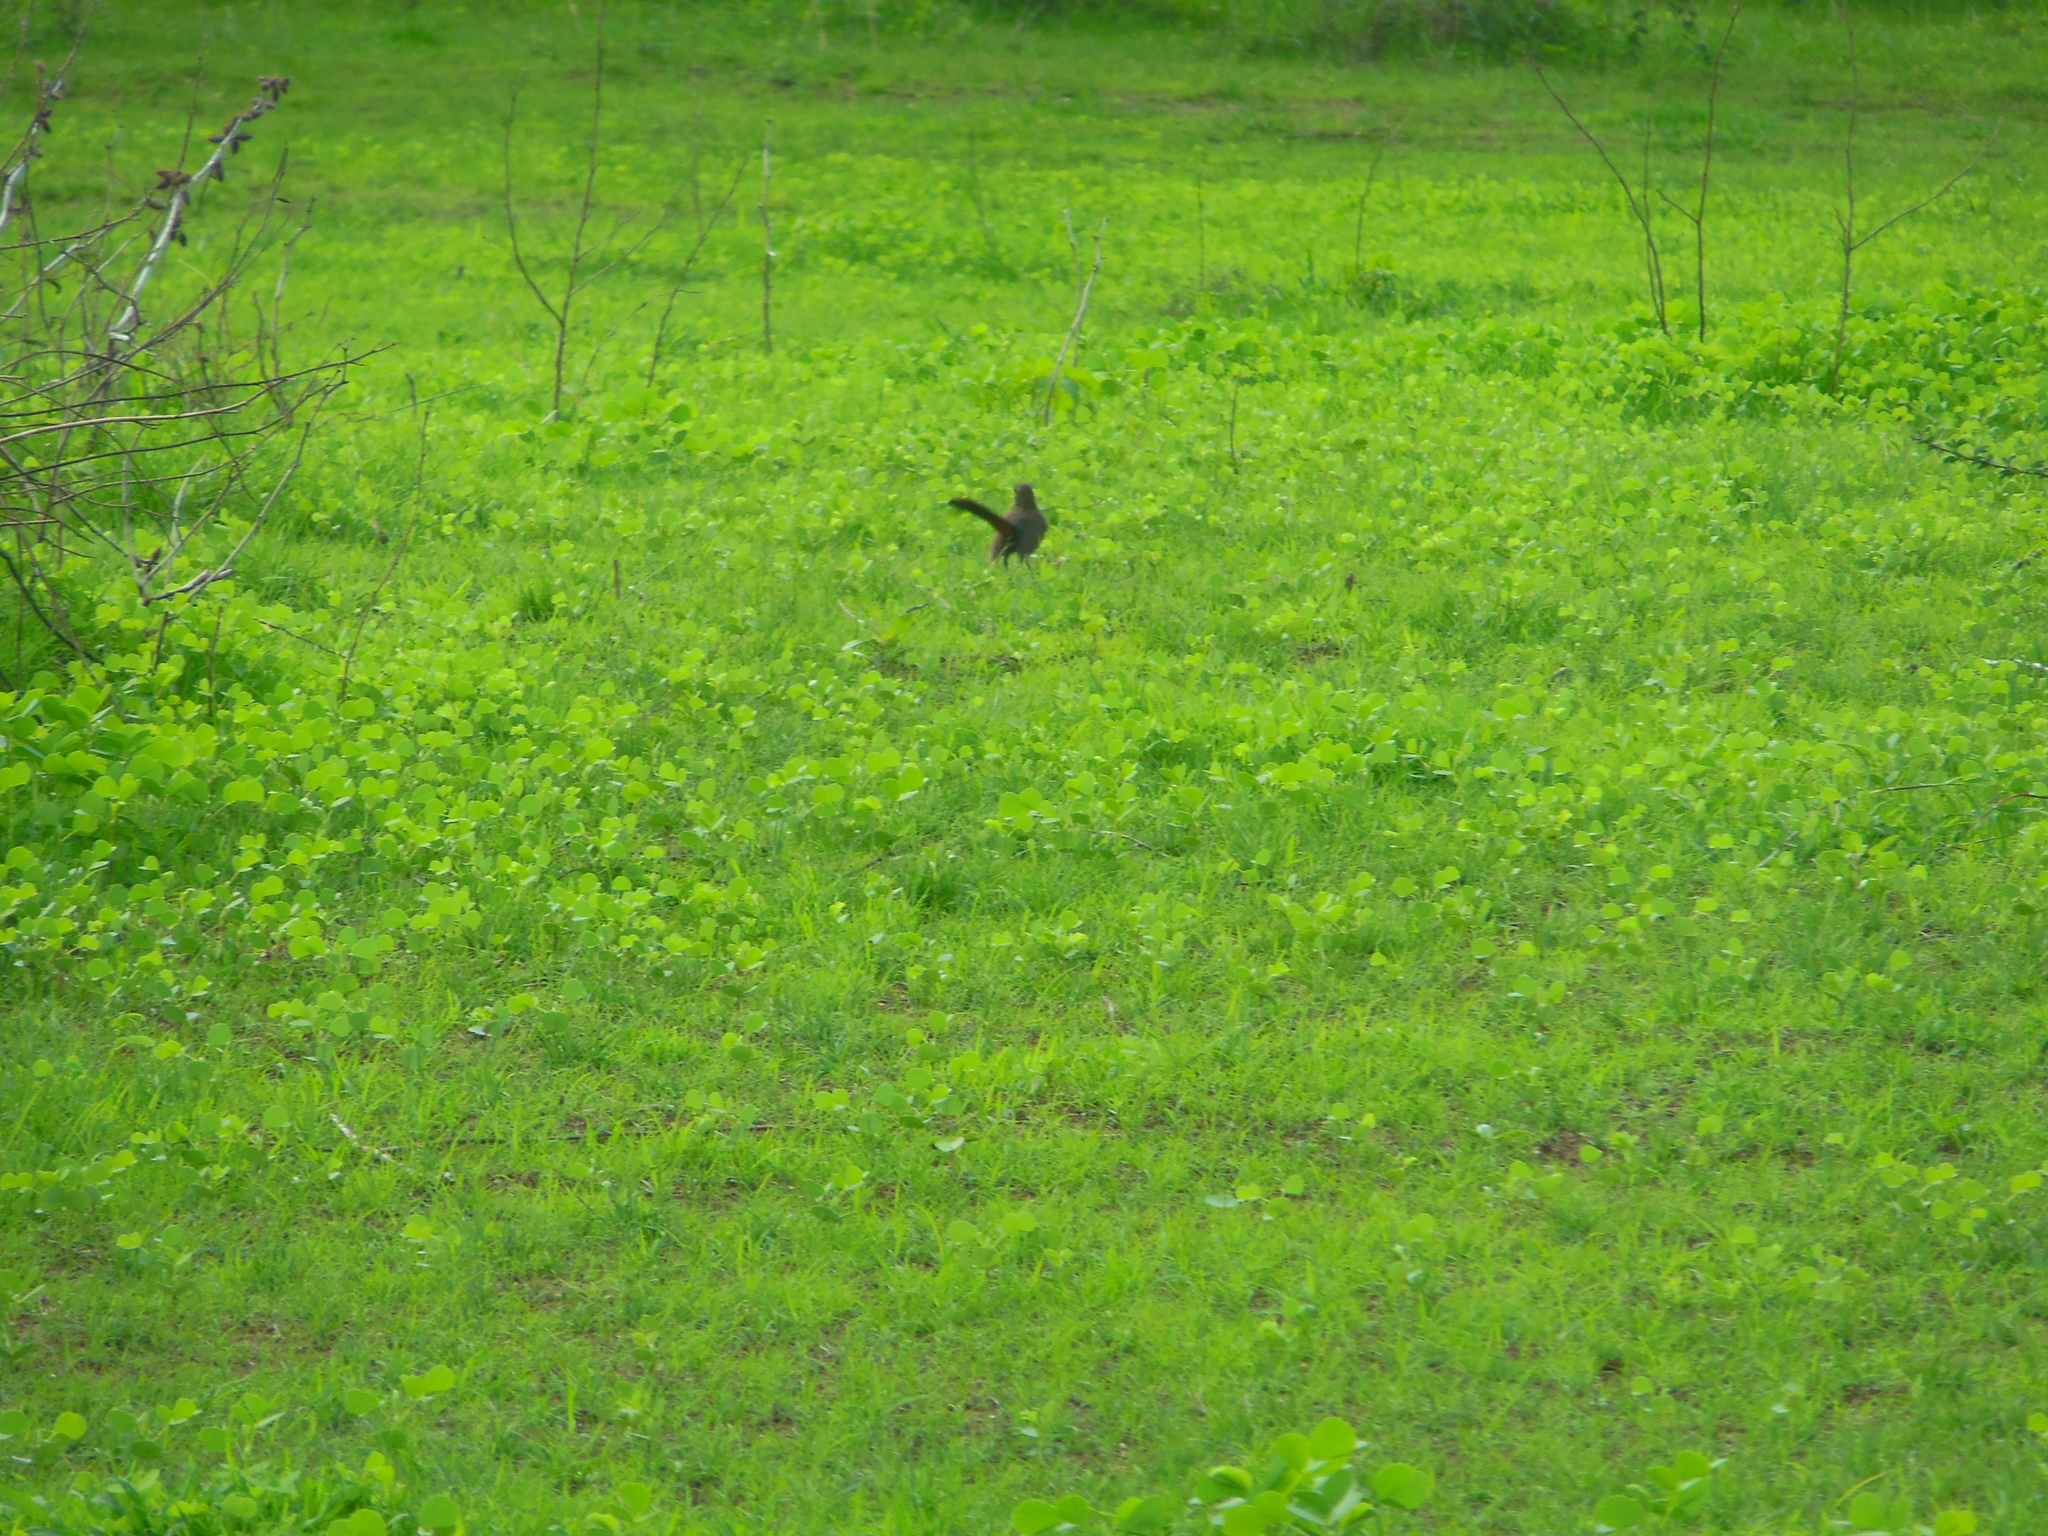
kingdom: Animalia
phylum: Chordata
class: Aves
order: Passeriformes
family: Muscicapidae
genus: Saxicoloides
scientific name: Saxicoloides fulicatus
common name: Indian robin
